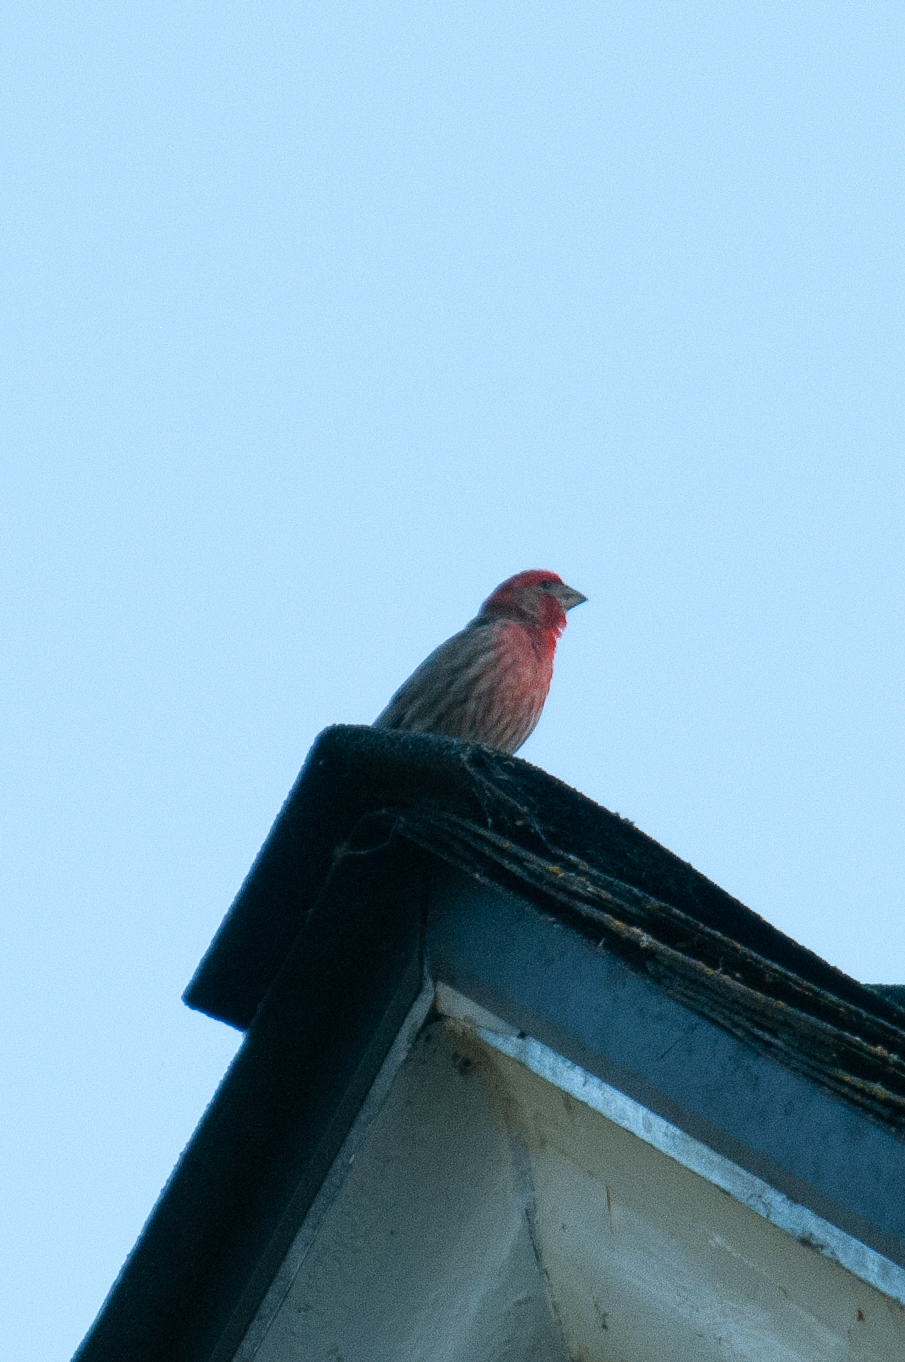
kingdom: Animalia
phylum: Chordata
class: Aves
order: Passeriformes
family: Fringillidae
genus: Haemorhous
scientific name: Haemorhous mexicanus
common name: House finch
